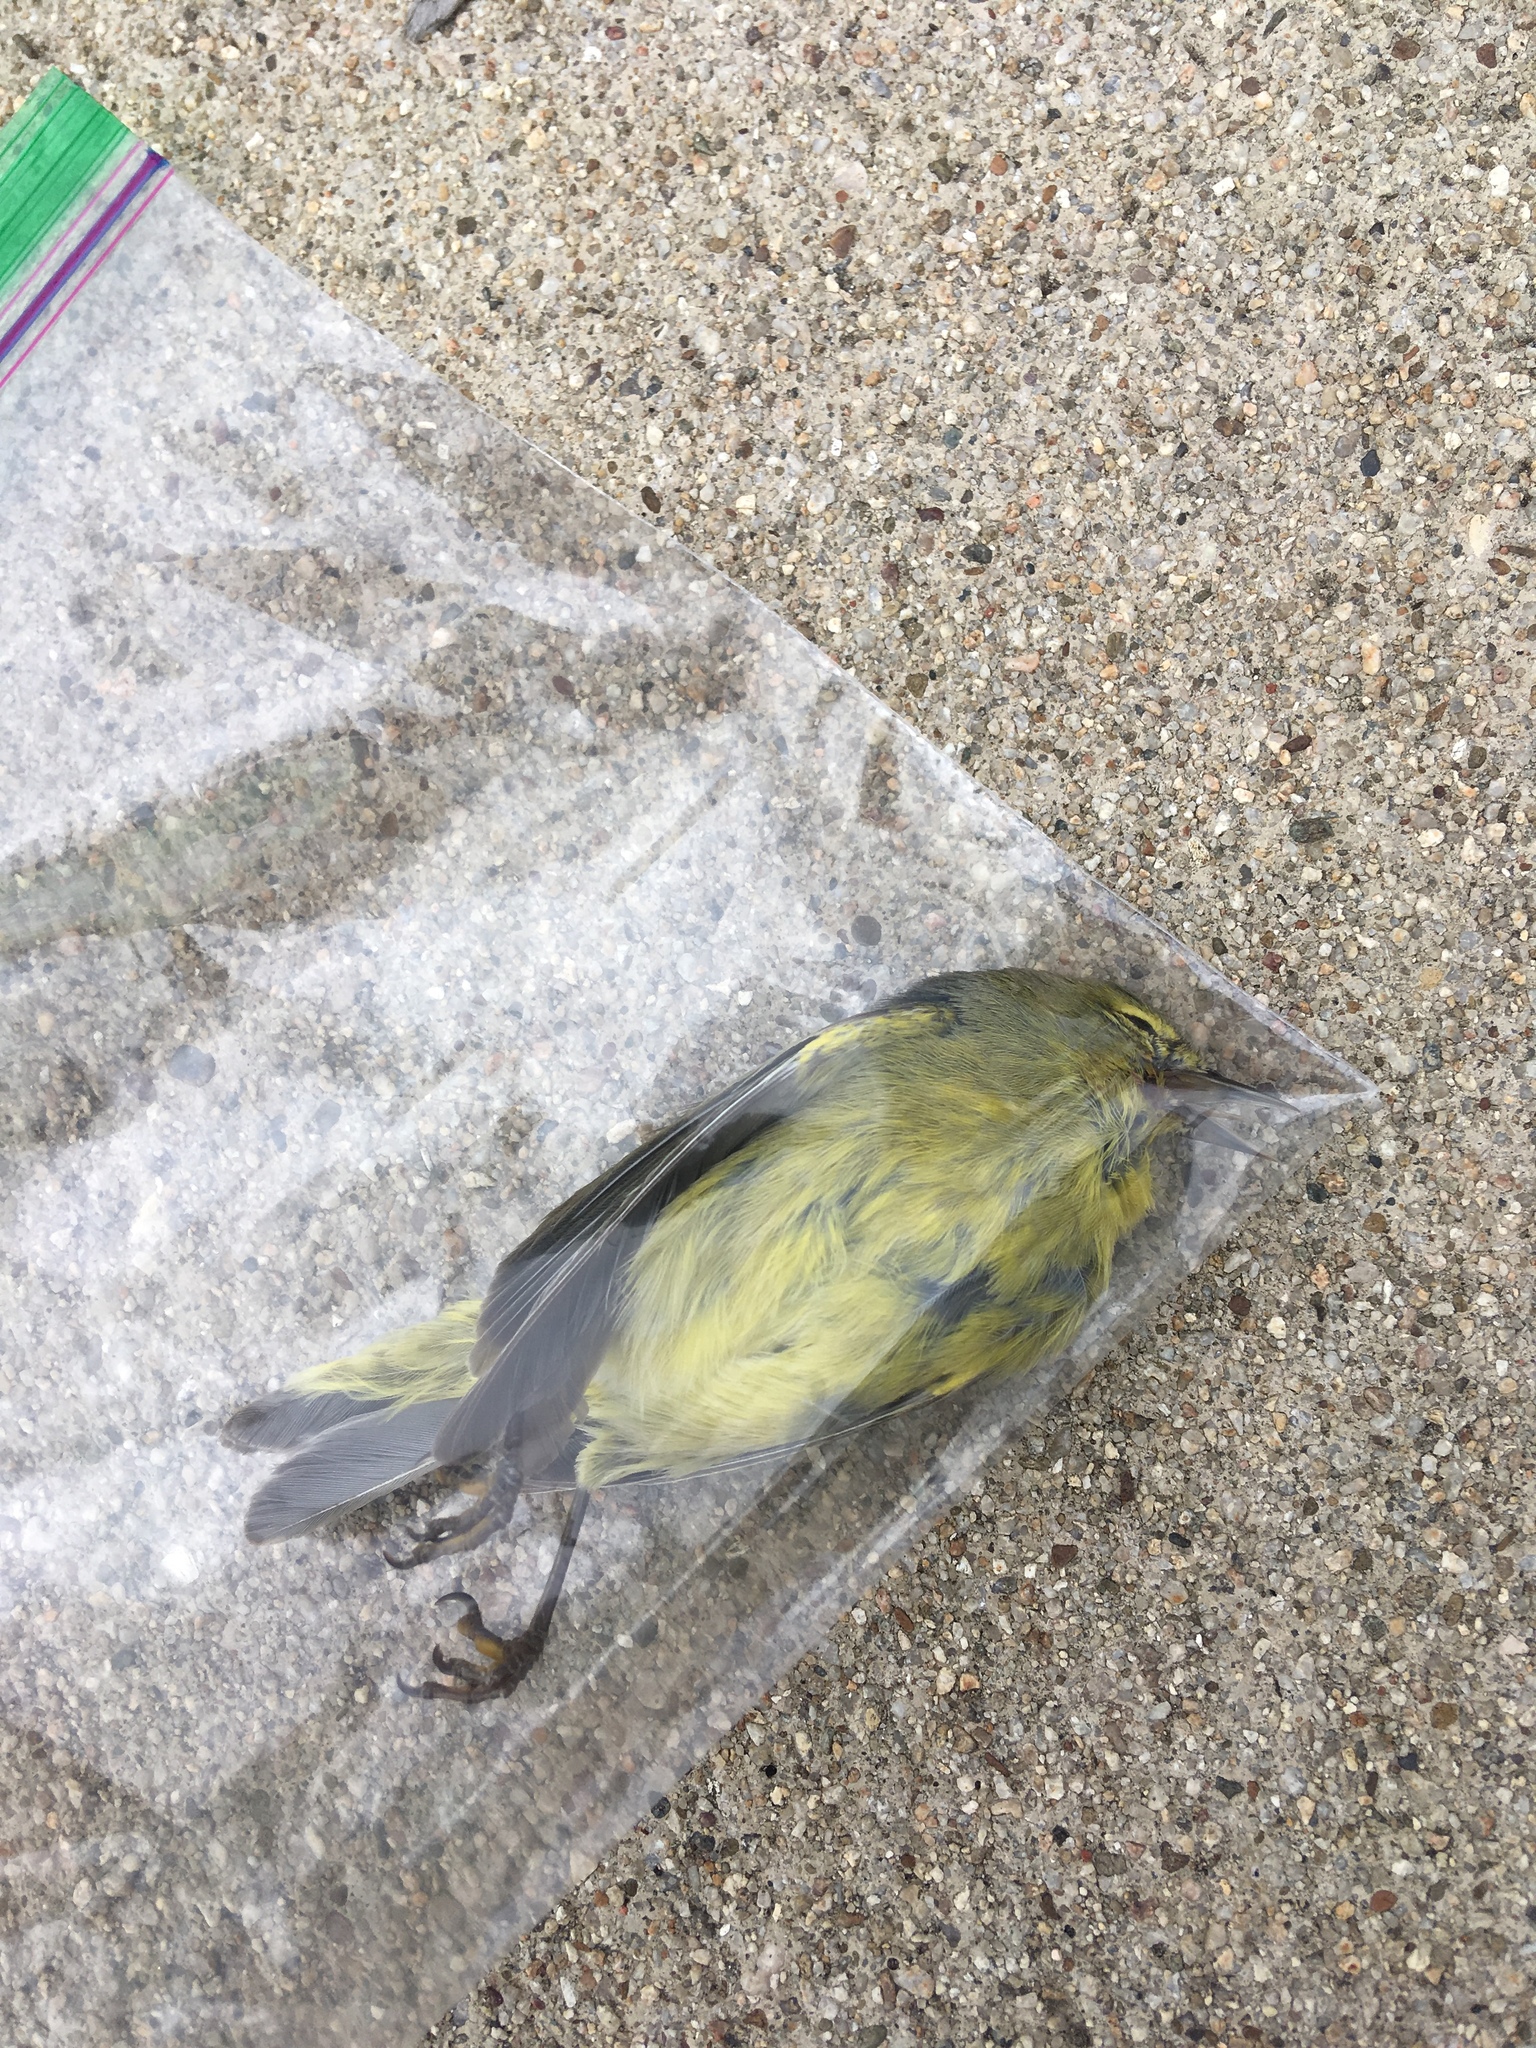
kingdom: Animalia
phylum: Chordata
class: Aves
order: Passeriformes
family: Parulidae
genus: Leiothlypis
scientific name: Leiothlypis celata
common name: Orange-crowned warbler
